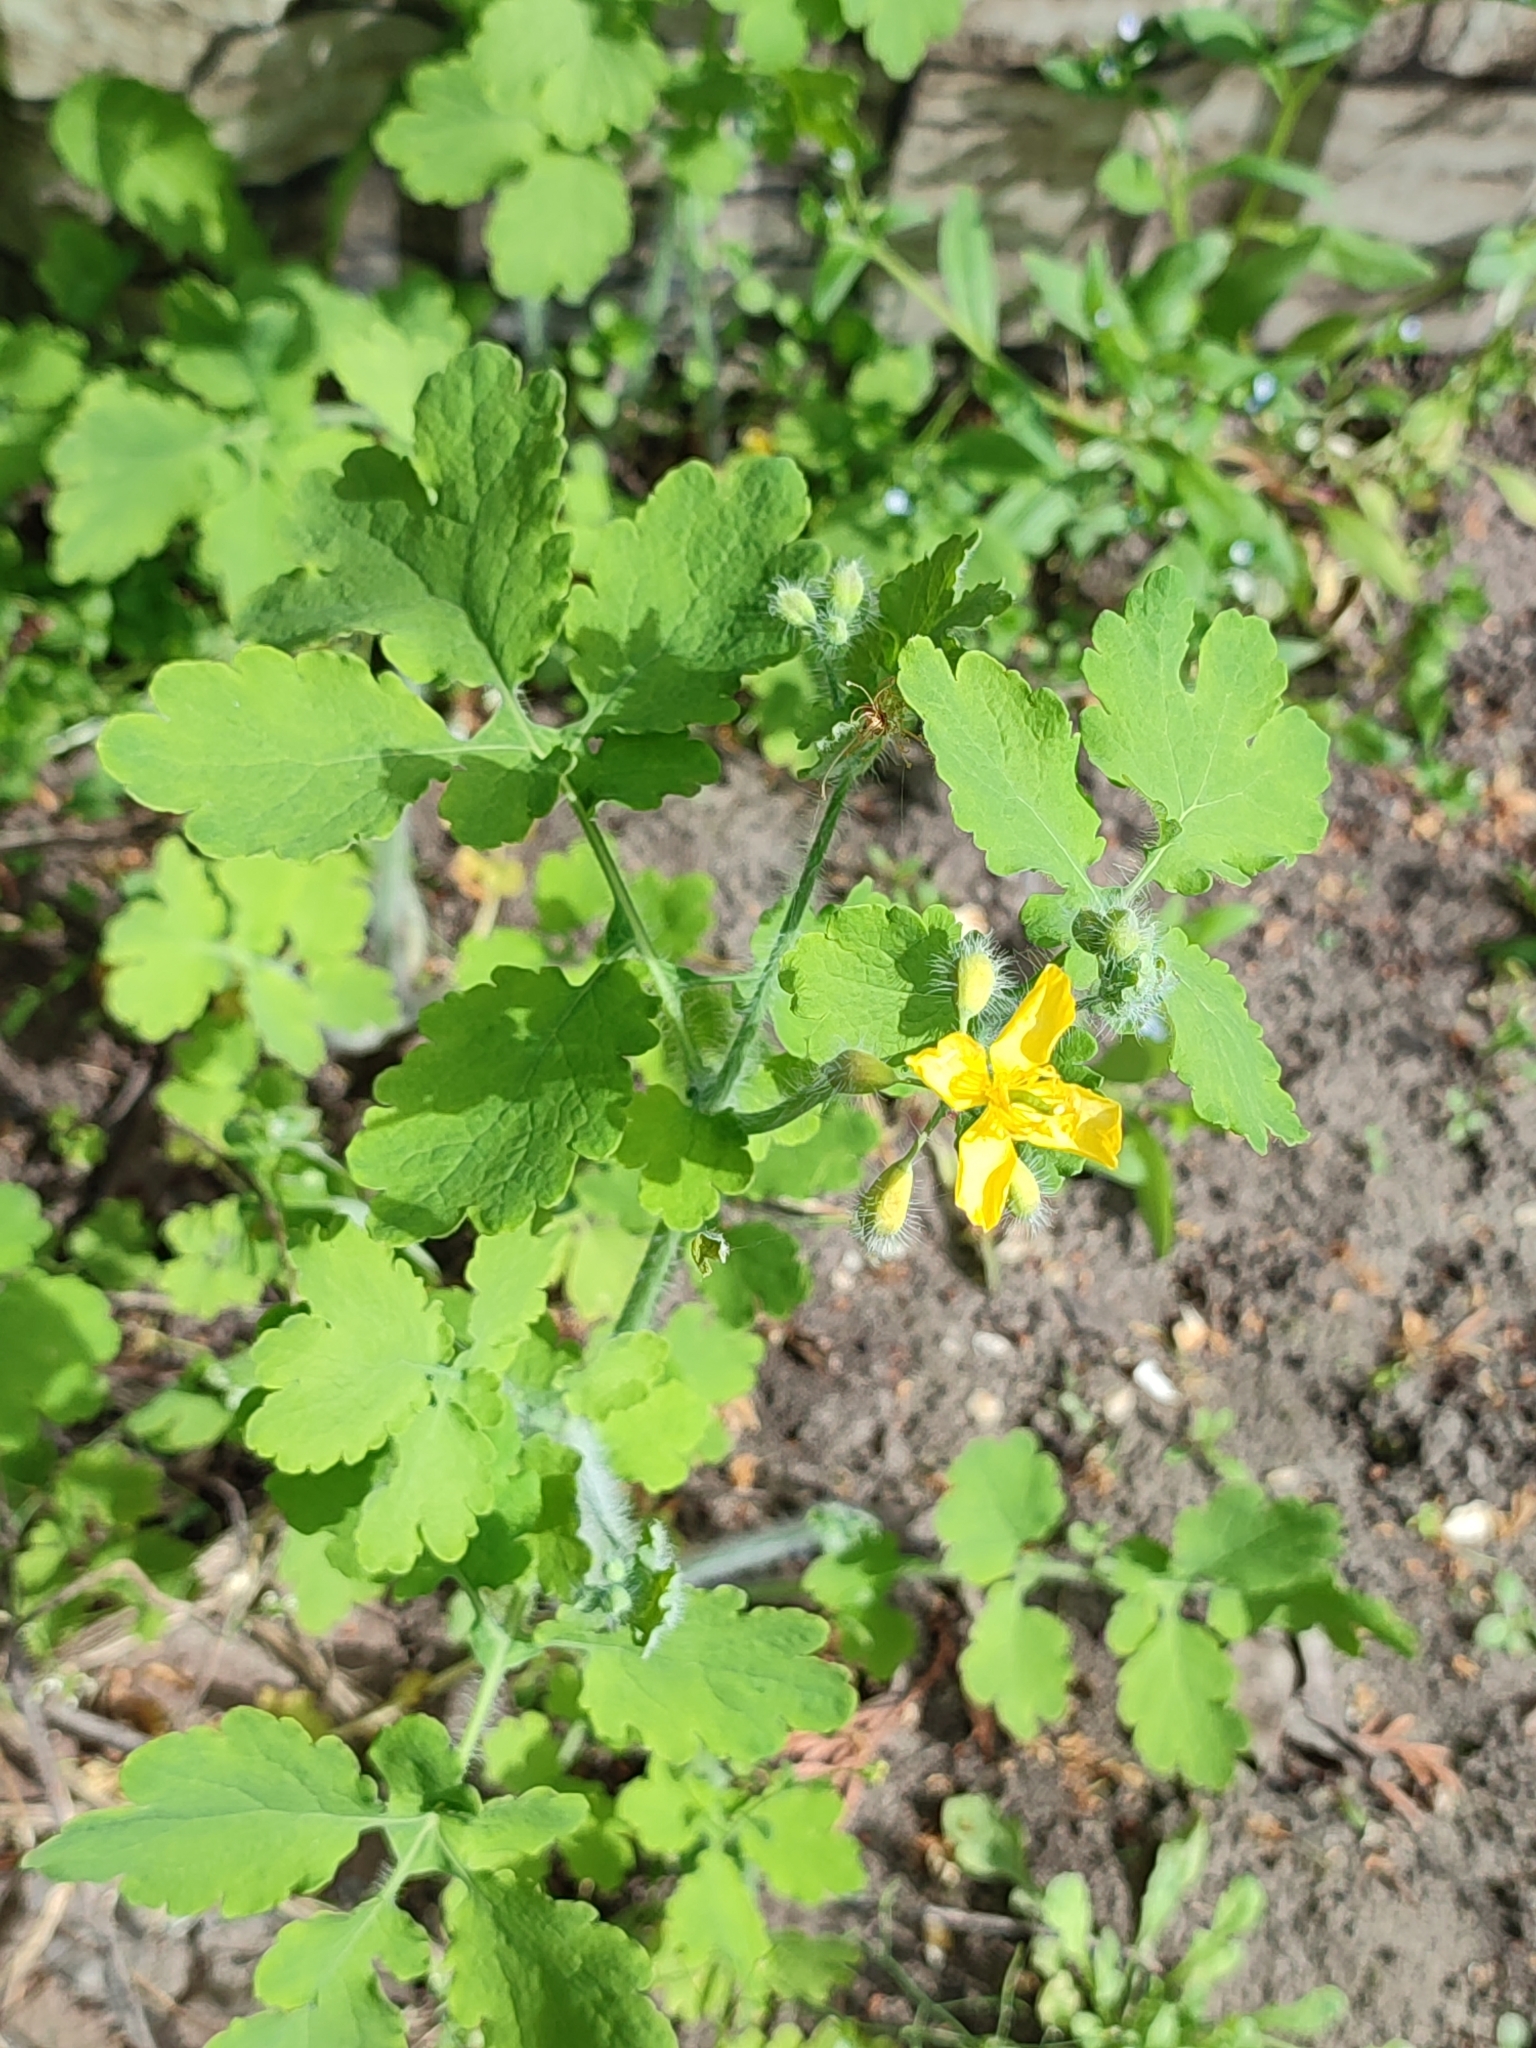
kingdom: Plantae
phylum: Tracheophyta
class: Magnoliopsida
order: Ranunculales
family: Papaveraceae
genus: Chelidonium
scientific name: Chelidonium majus
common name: Greater celandine
